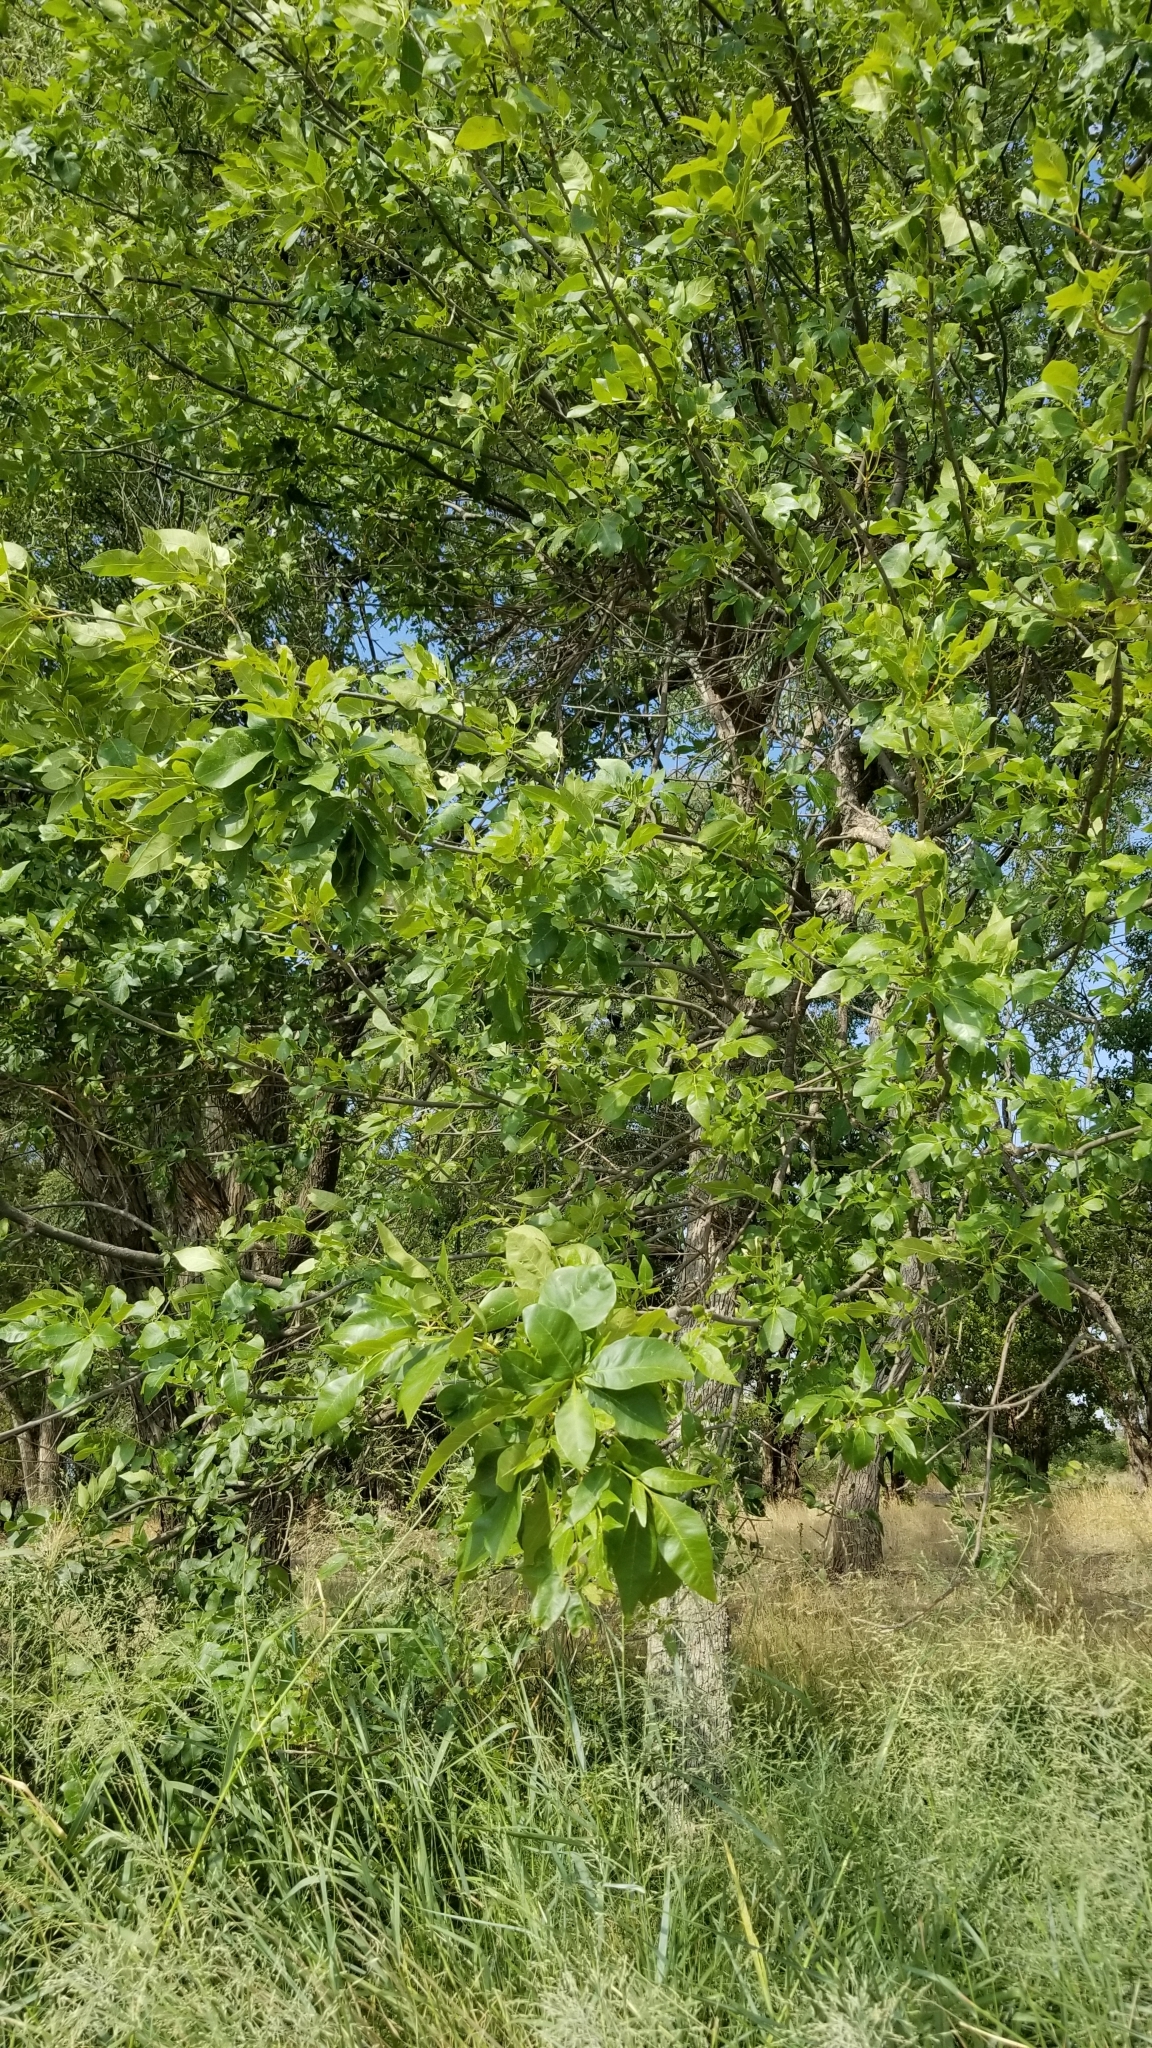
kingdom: Plantae
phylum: Tracheophyta
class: Magnoliopsida
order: Fagales
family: Juglandaceae
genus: Carya
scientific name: Carya texana
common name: Black hickory
